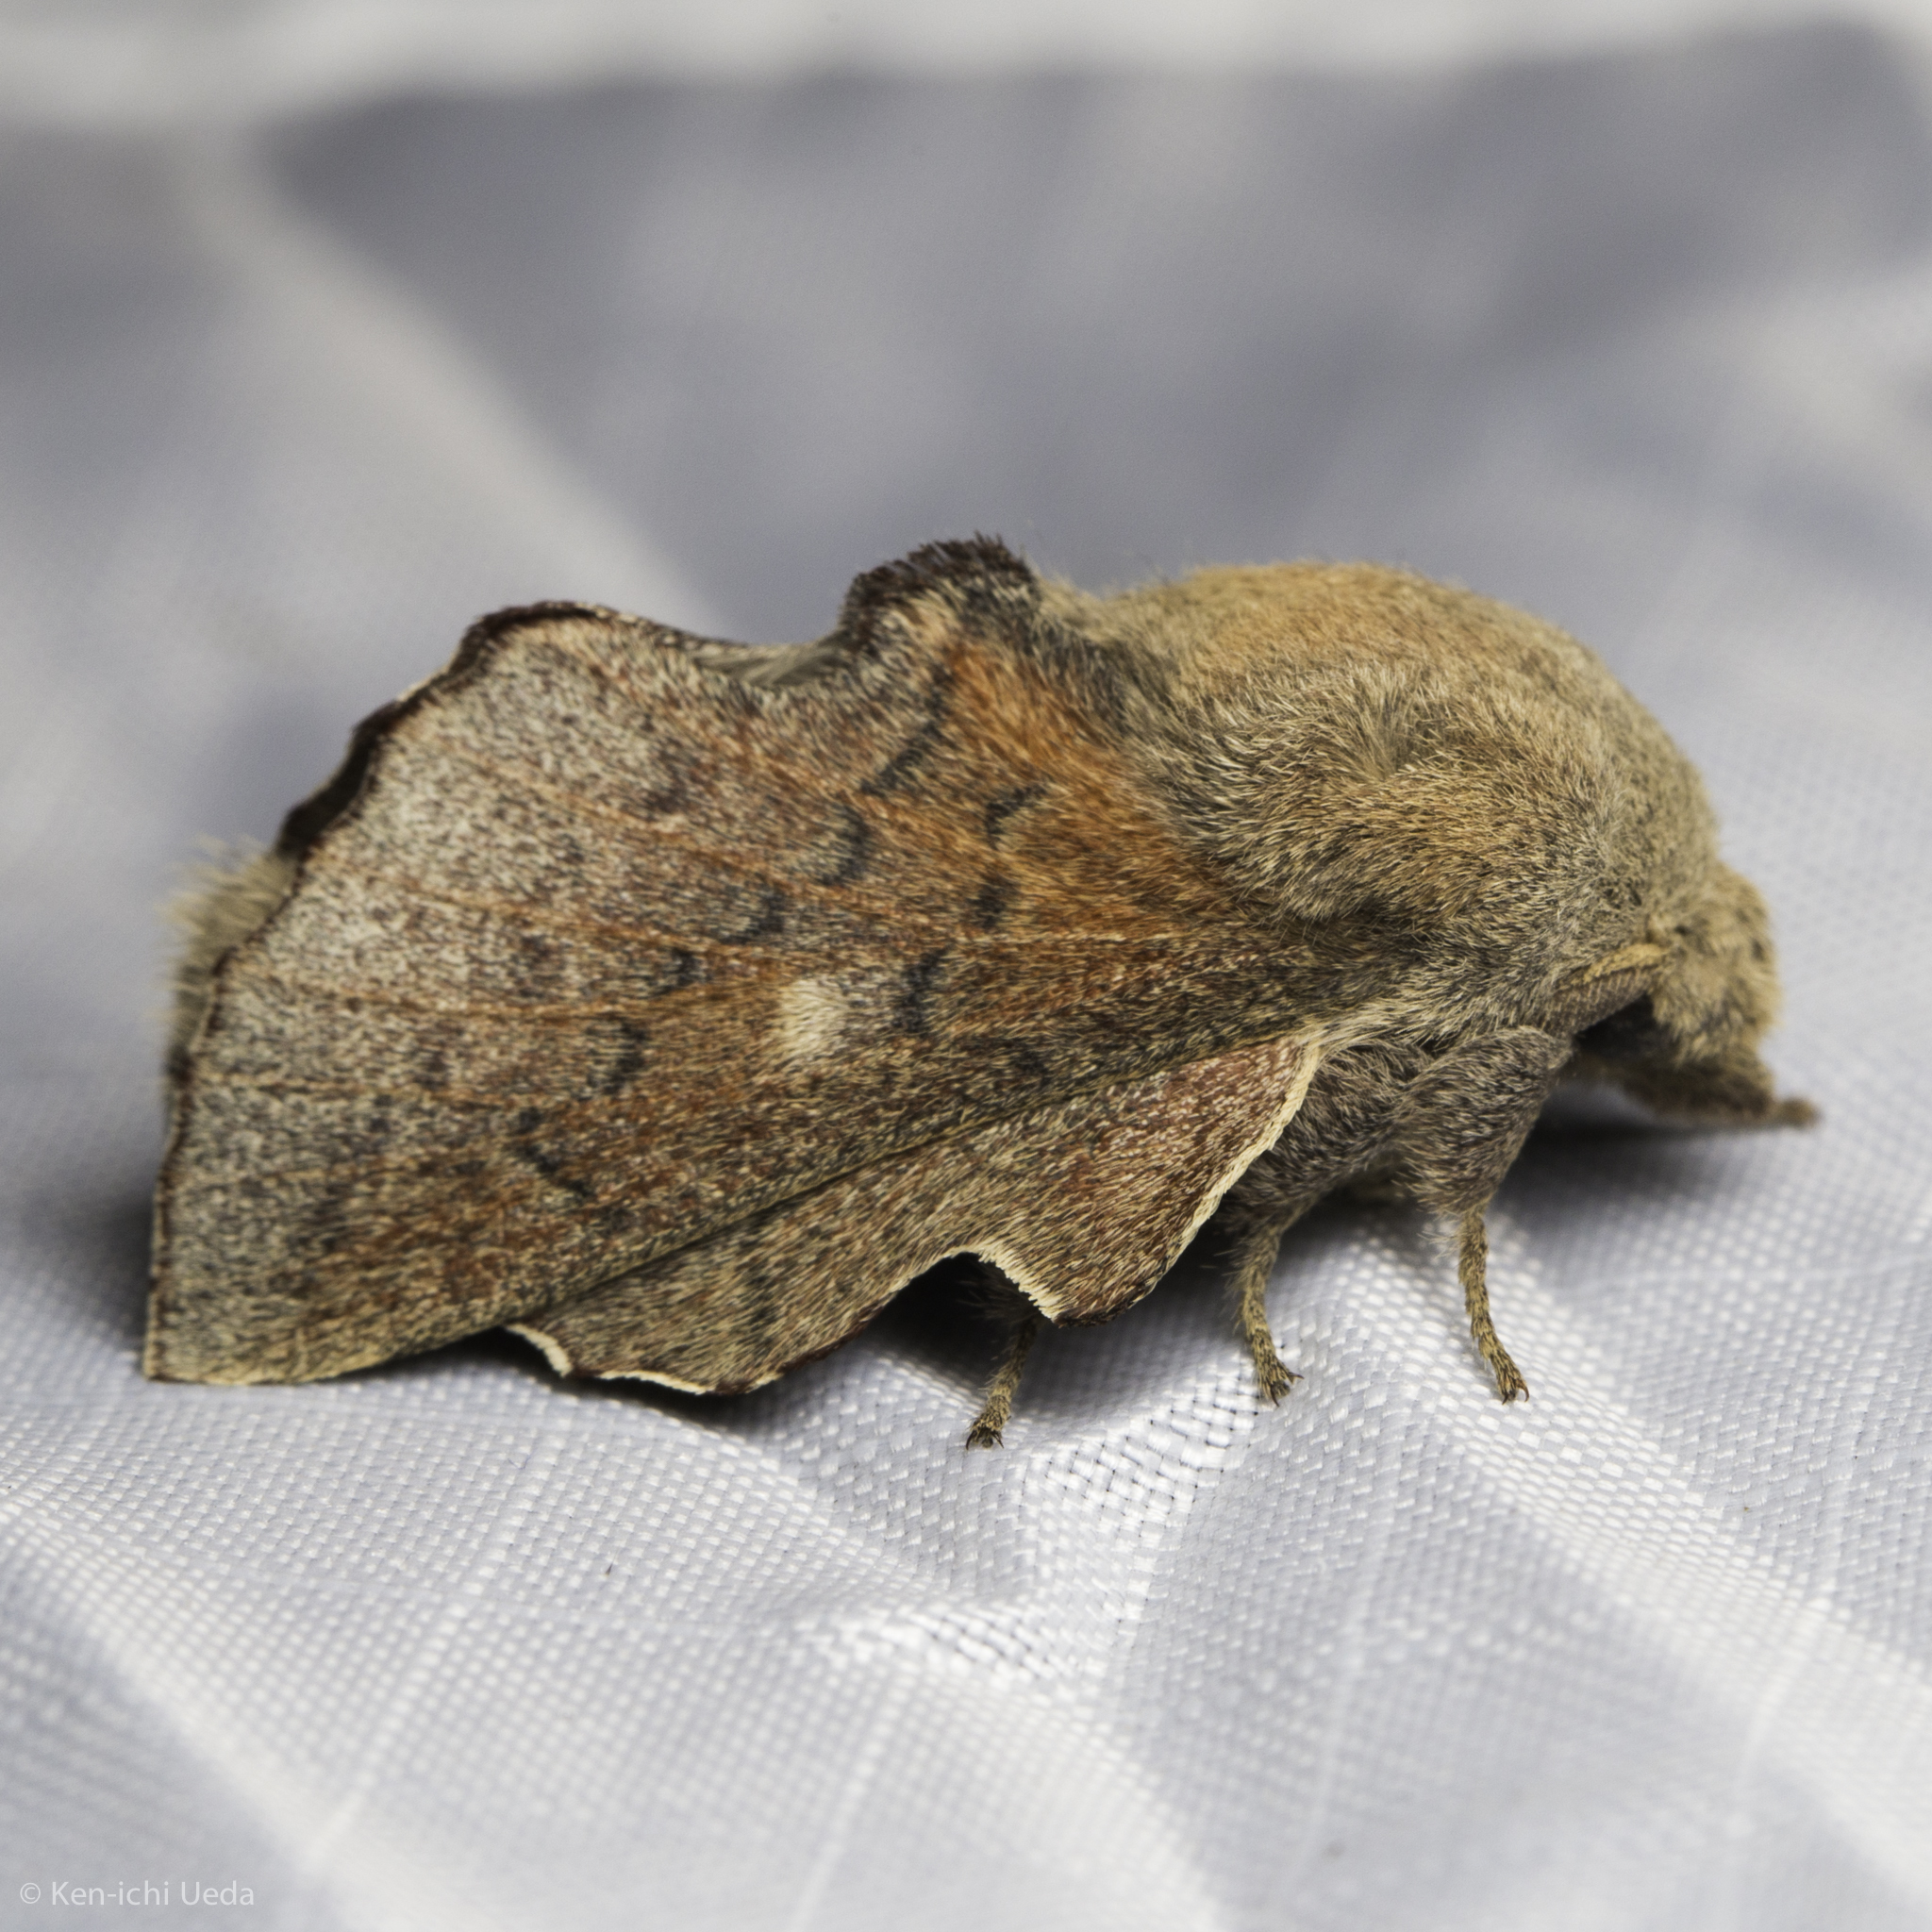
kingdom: Animalia
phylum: Arthropoda
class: Insecta
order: Lepidoptera
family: Lasiocampidae
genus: Phyllodesma
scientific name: Phyllodesma americana
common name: American lappet moth
